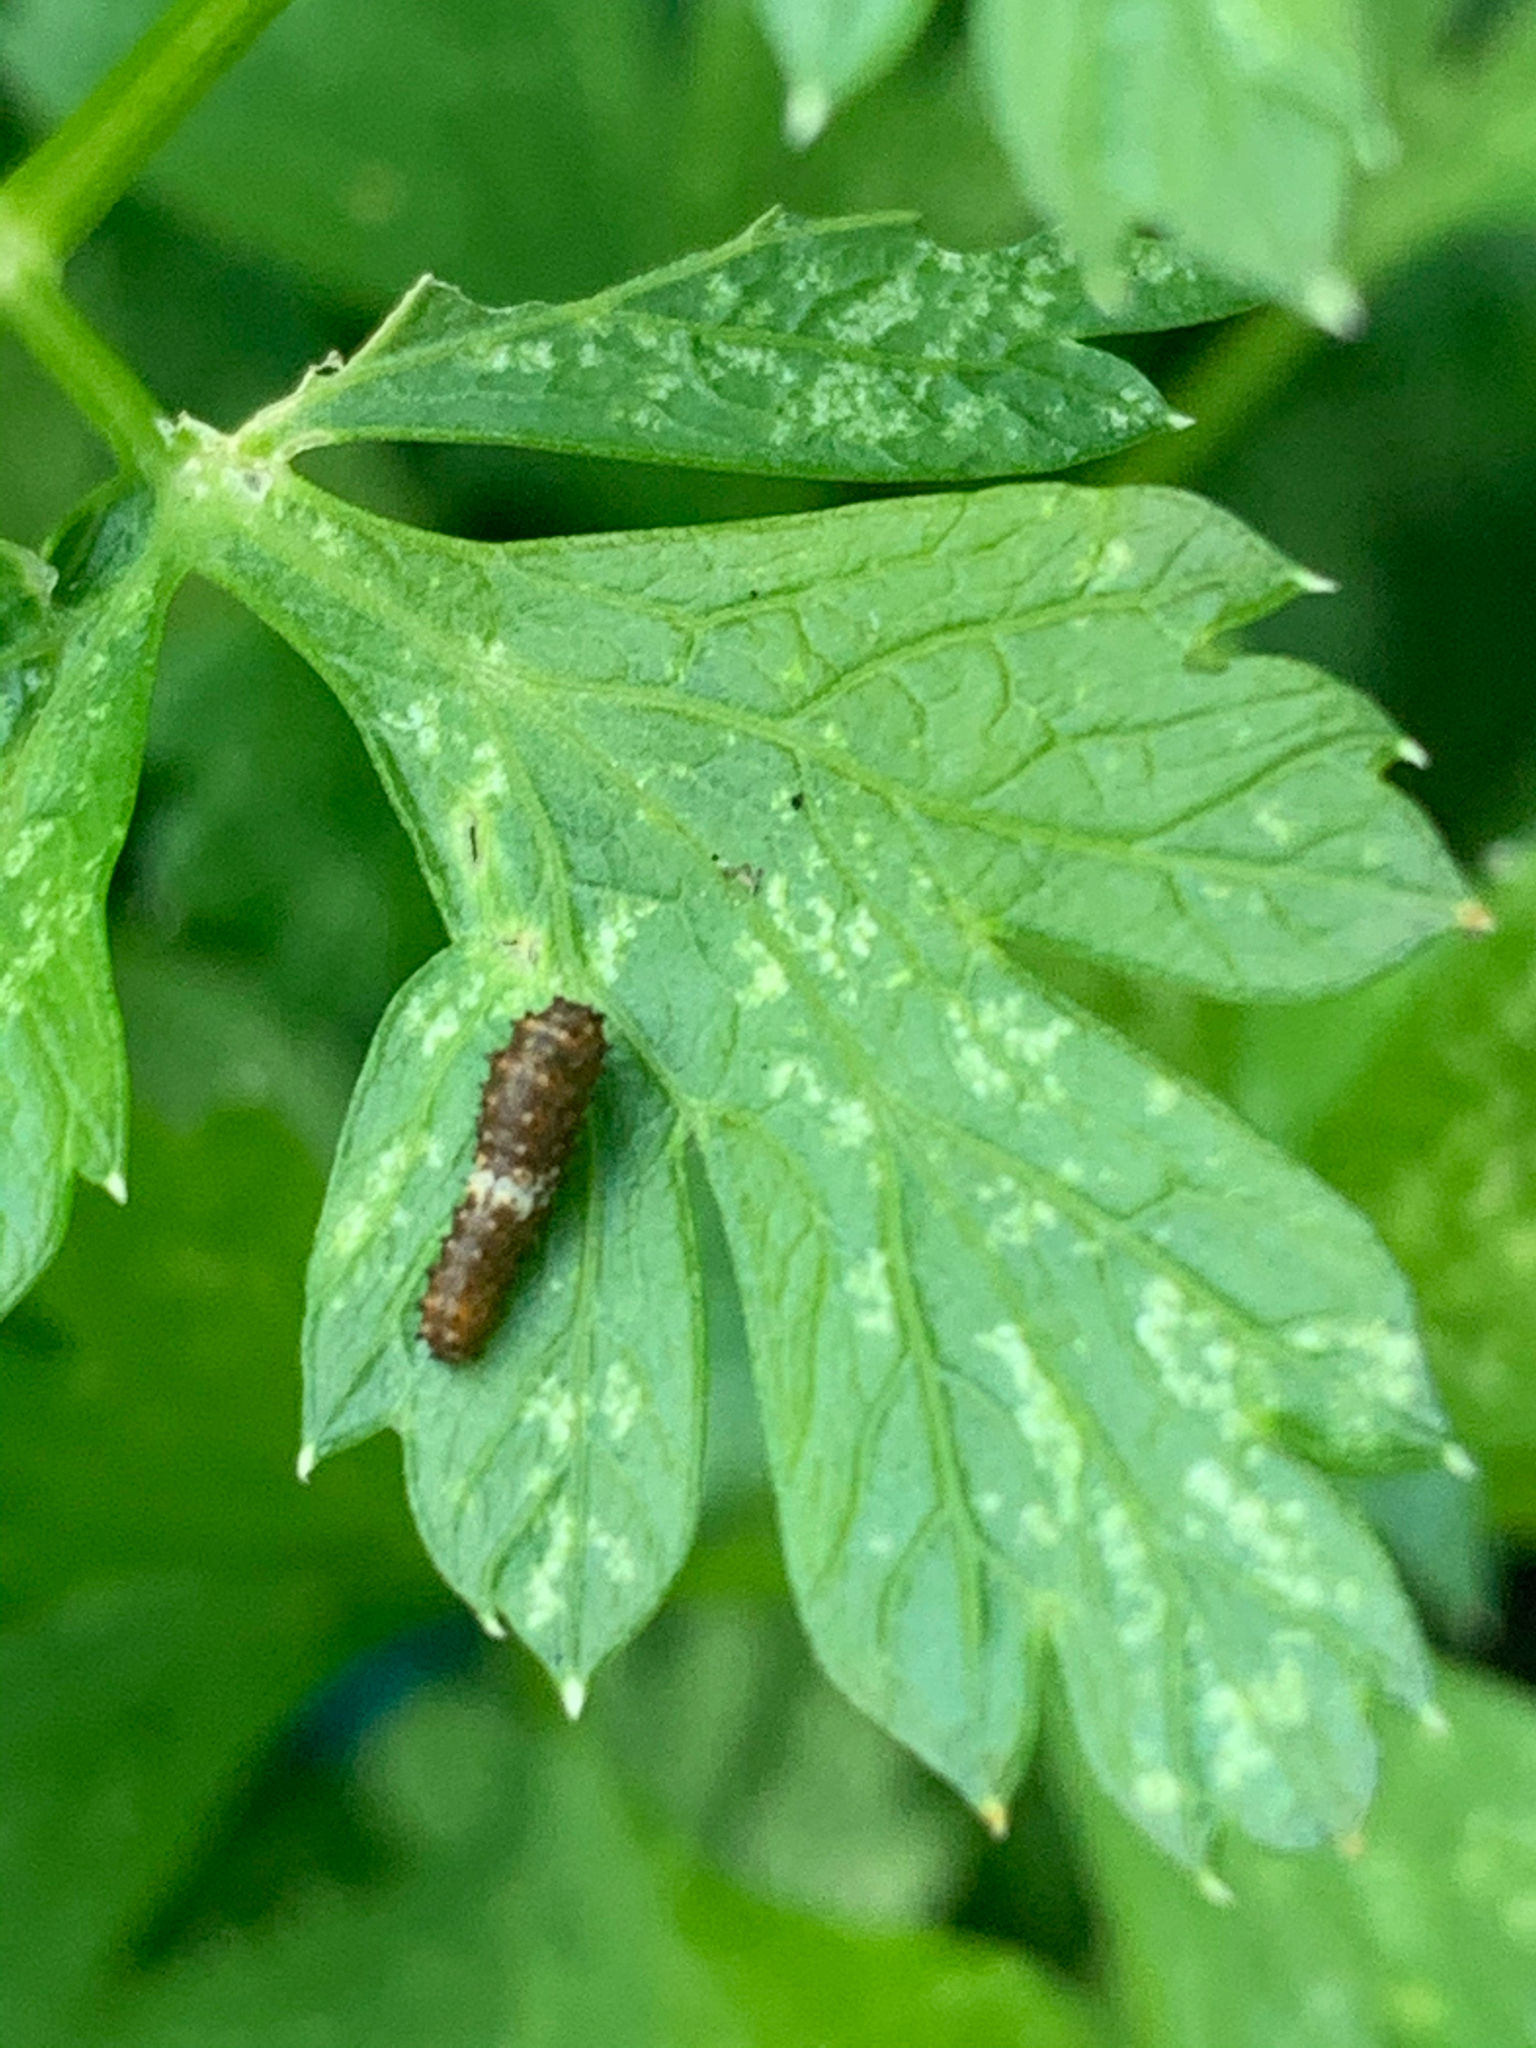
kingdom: Animalia
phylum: Arthropoda
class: Insecta
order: Lepidoptera
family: Papilionidae
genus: Papilio
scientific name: Papilio polyxenes
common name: Black swallowtail
